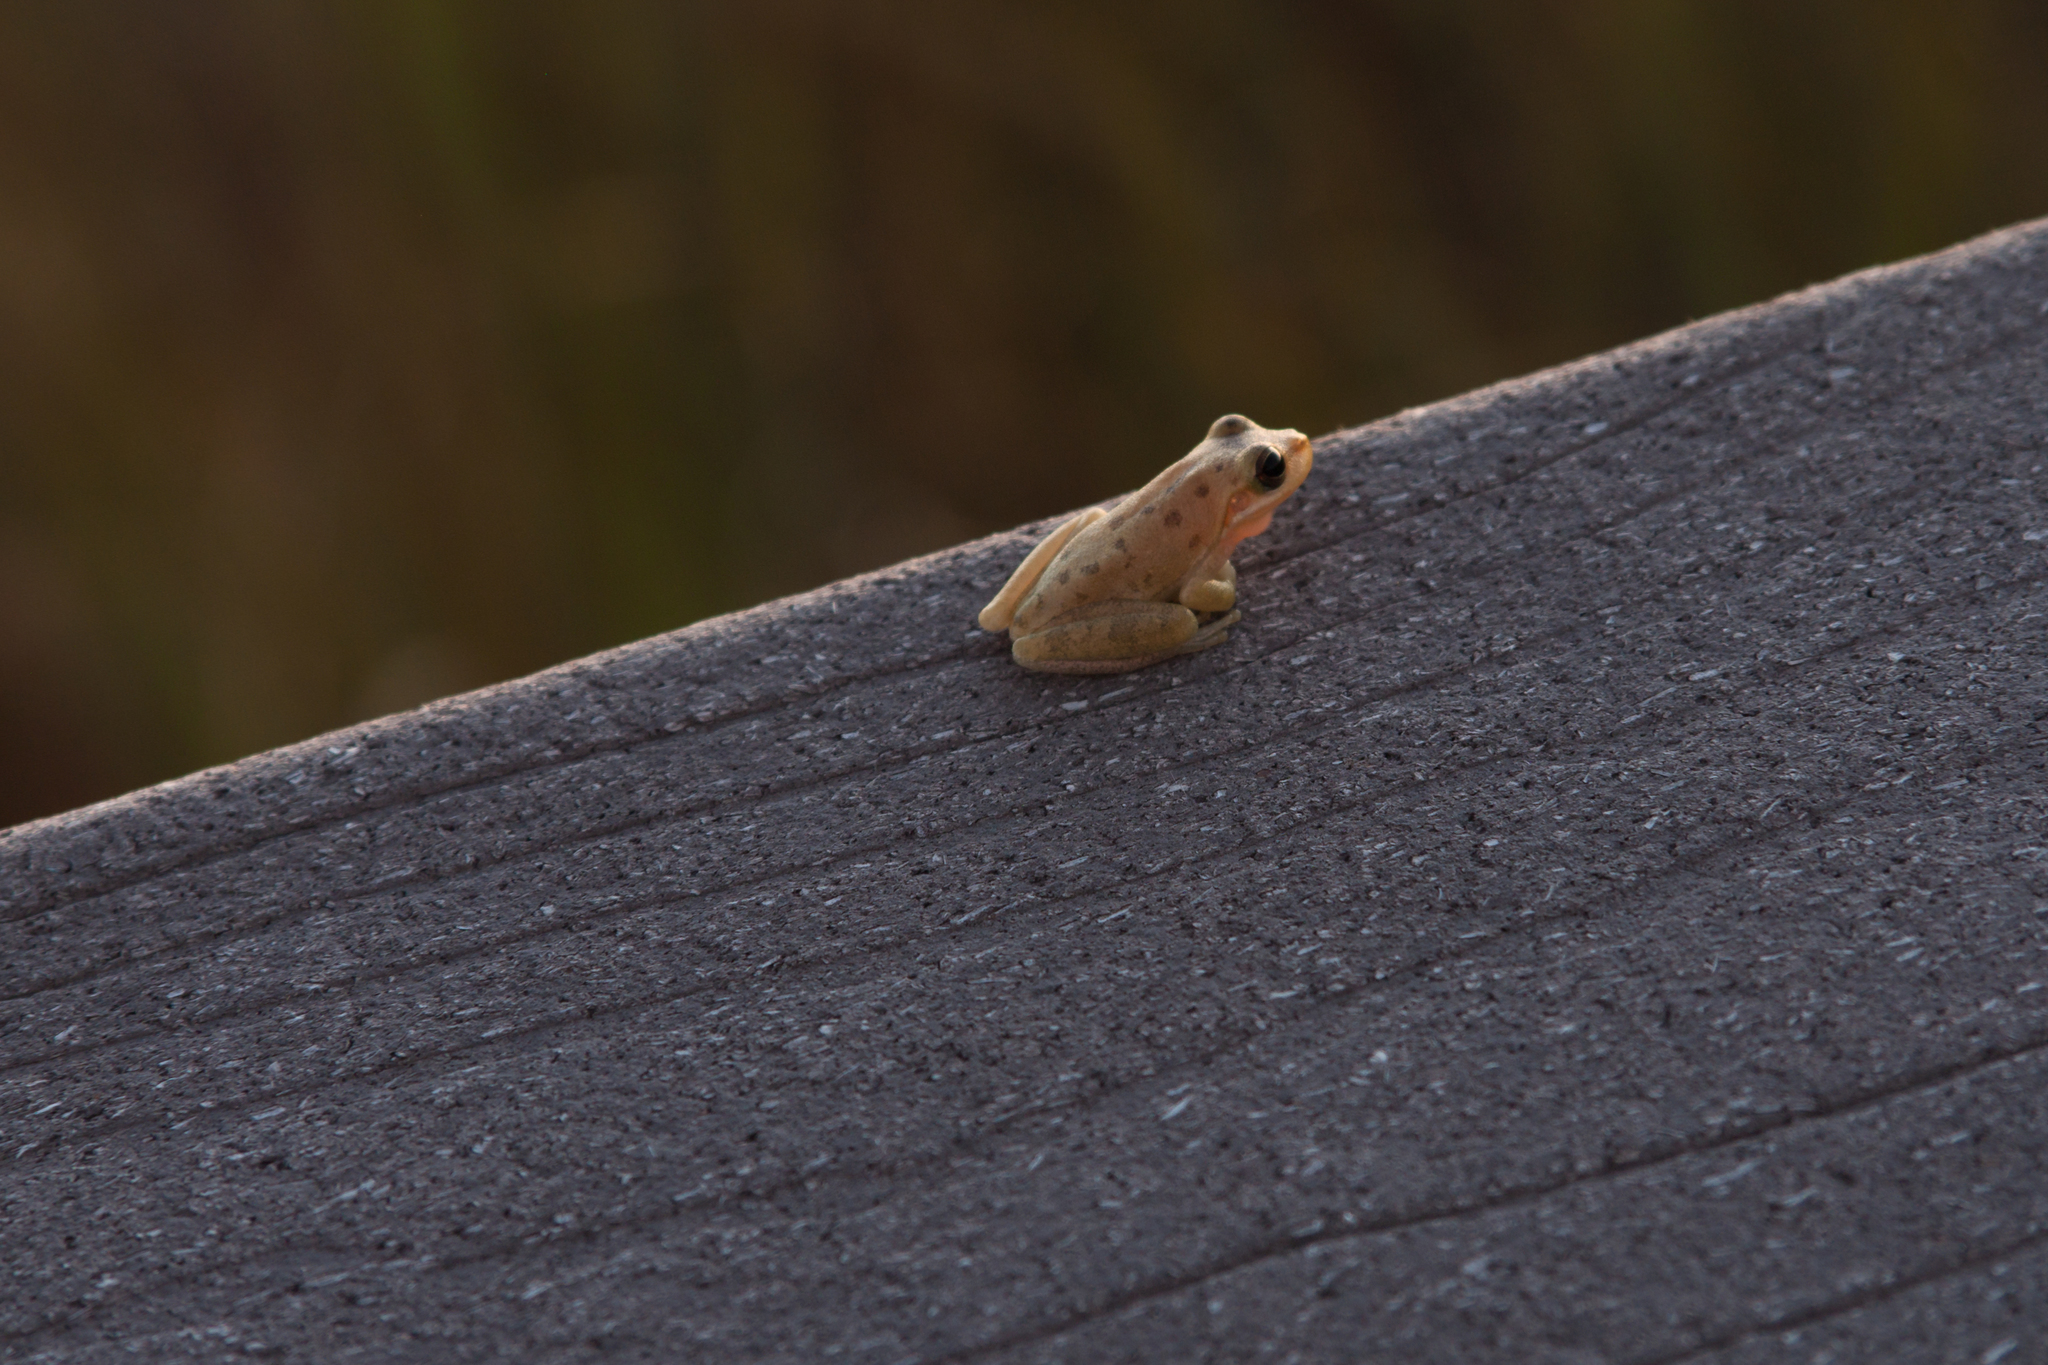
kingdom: Animalia
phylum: Chordata
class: Amphibia
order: Anura
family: Hylidae
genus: Dryophytes
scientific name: Dryophytes squirellus
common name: Squirrel treefrog
